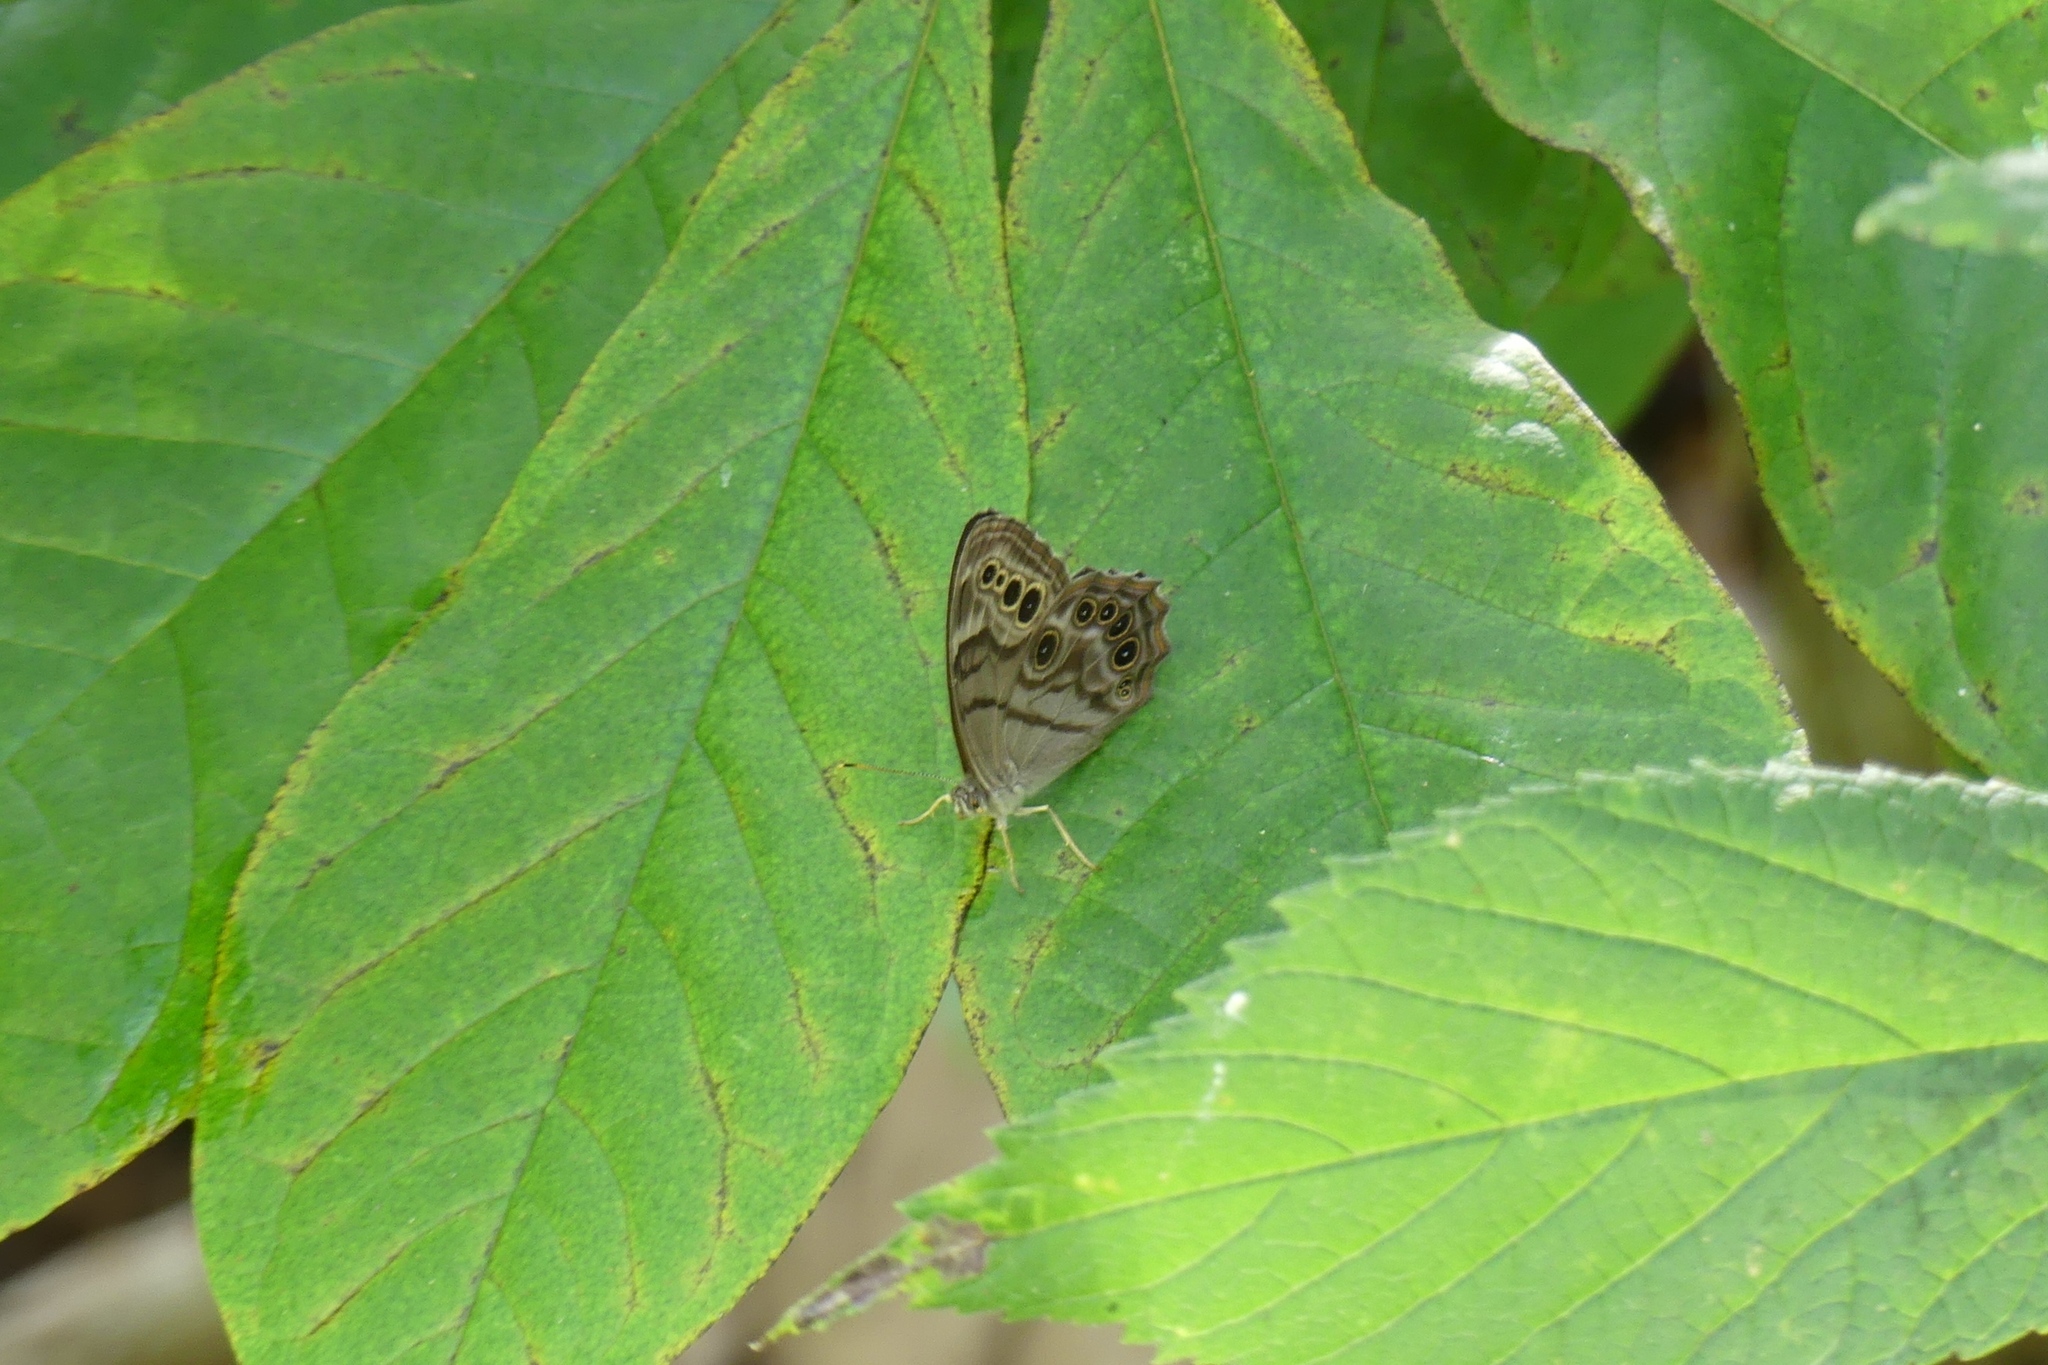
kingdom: Animalia
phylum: Arthropoda
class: Insecta
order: Lepidoptera
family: Nymphalidae
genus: Lethe
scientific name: Lethe anthedon
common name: Northern pearly-eye
